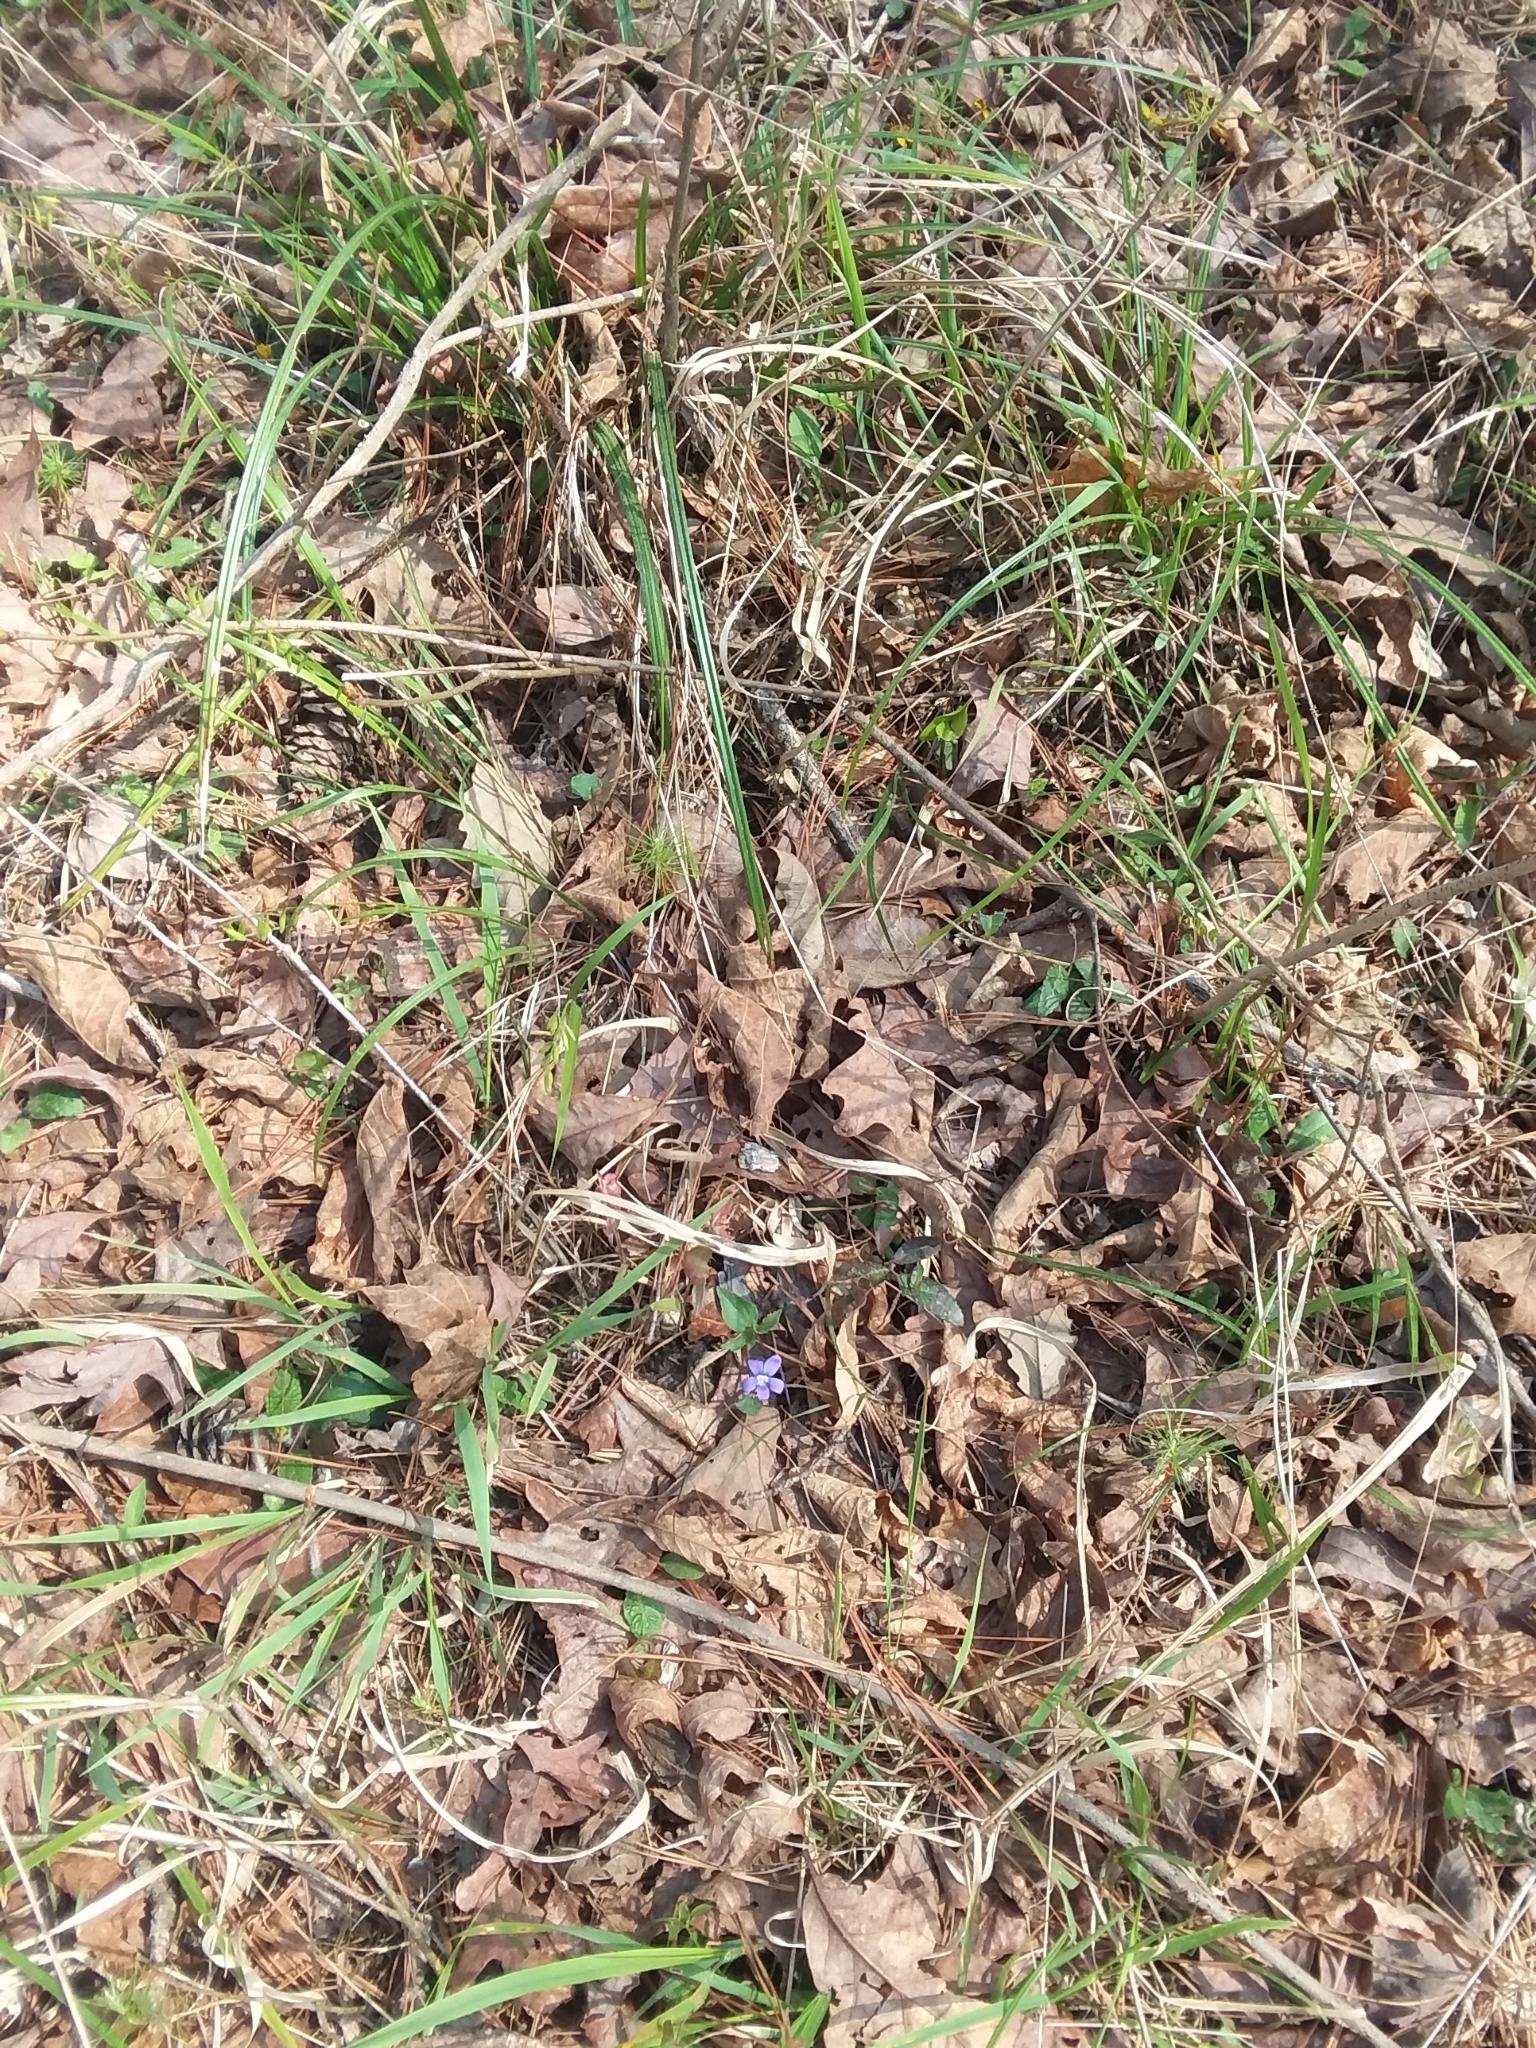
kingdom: Plantae
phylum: Tracheophyta
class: Magnoliopsida
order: Malpighiales
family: Violaceae
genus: Viola
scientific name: Viola palmata
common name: Early blue violet
